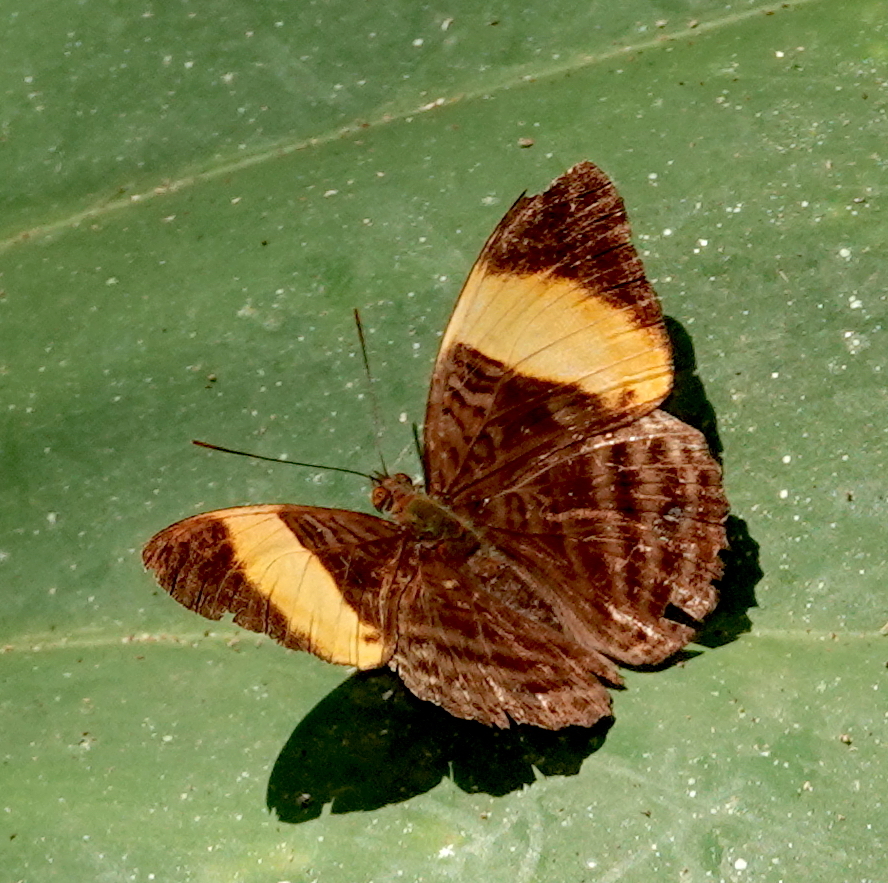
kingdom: Animalia
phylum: Arthropoda
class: Insecta
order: Lepidoptera
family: Nymphalidae
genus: Limenitis
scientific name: Limenitis salmoneus
